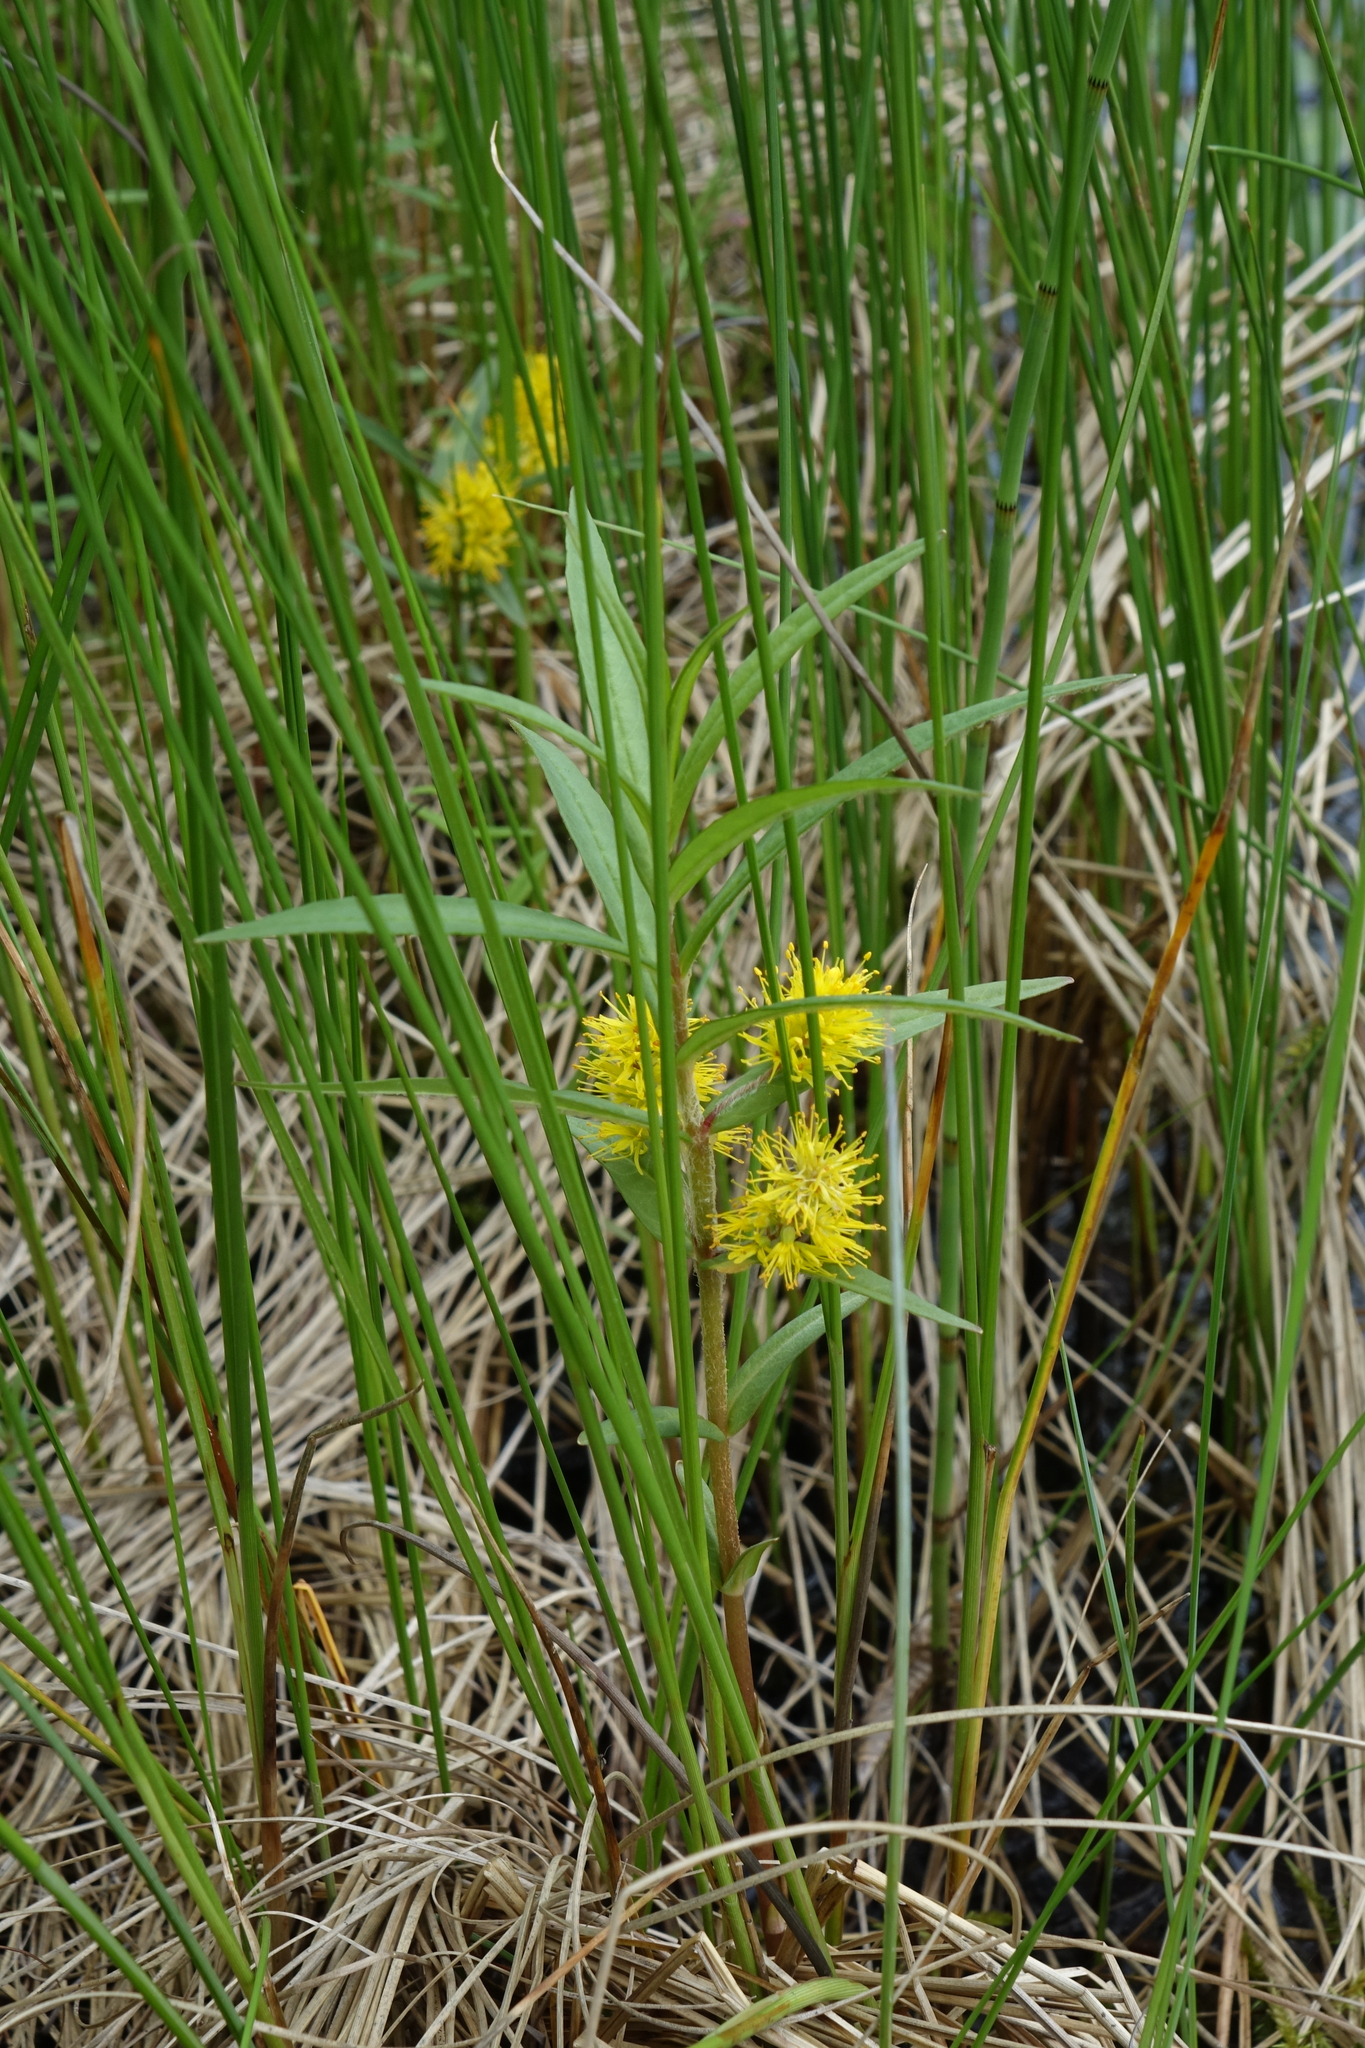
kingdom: Plantae
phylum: Tracheophyta
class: Magnoliopsida
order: Ericales
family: Primulaceae
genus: Lysimachia
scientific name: Lysimachia thyrsiflora
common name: Tufted loosestrife
